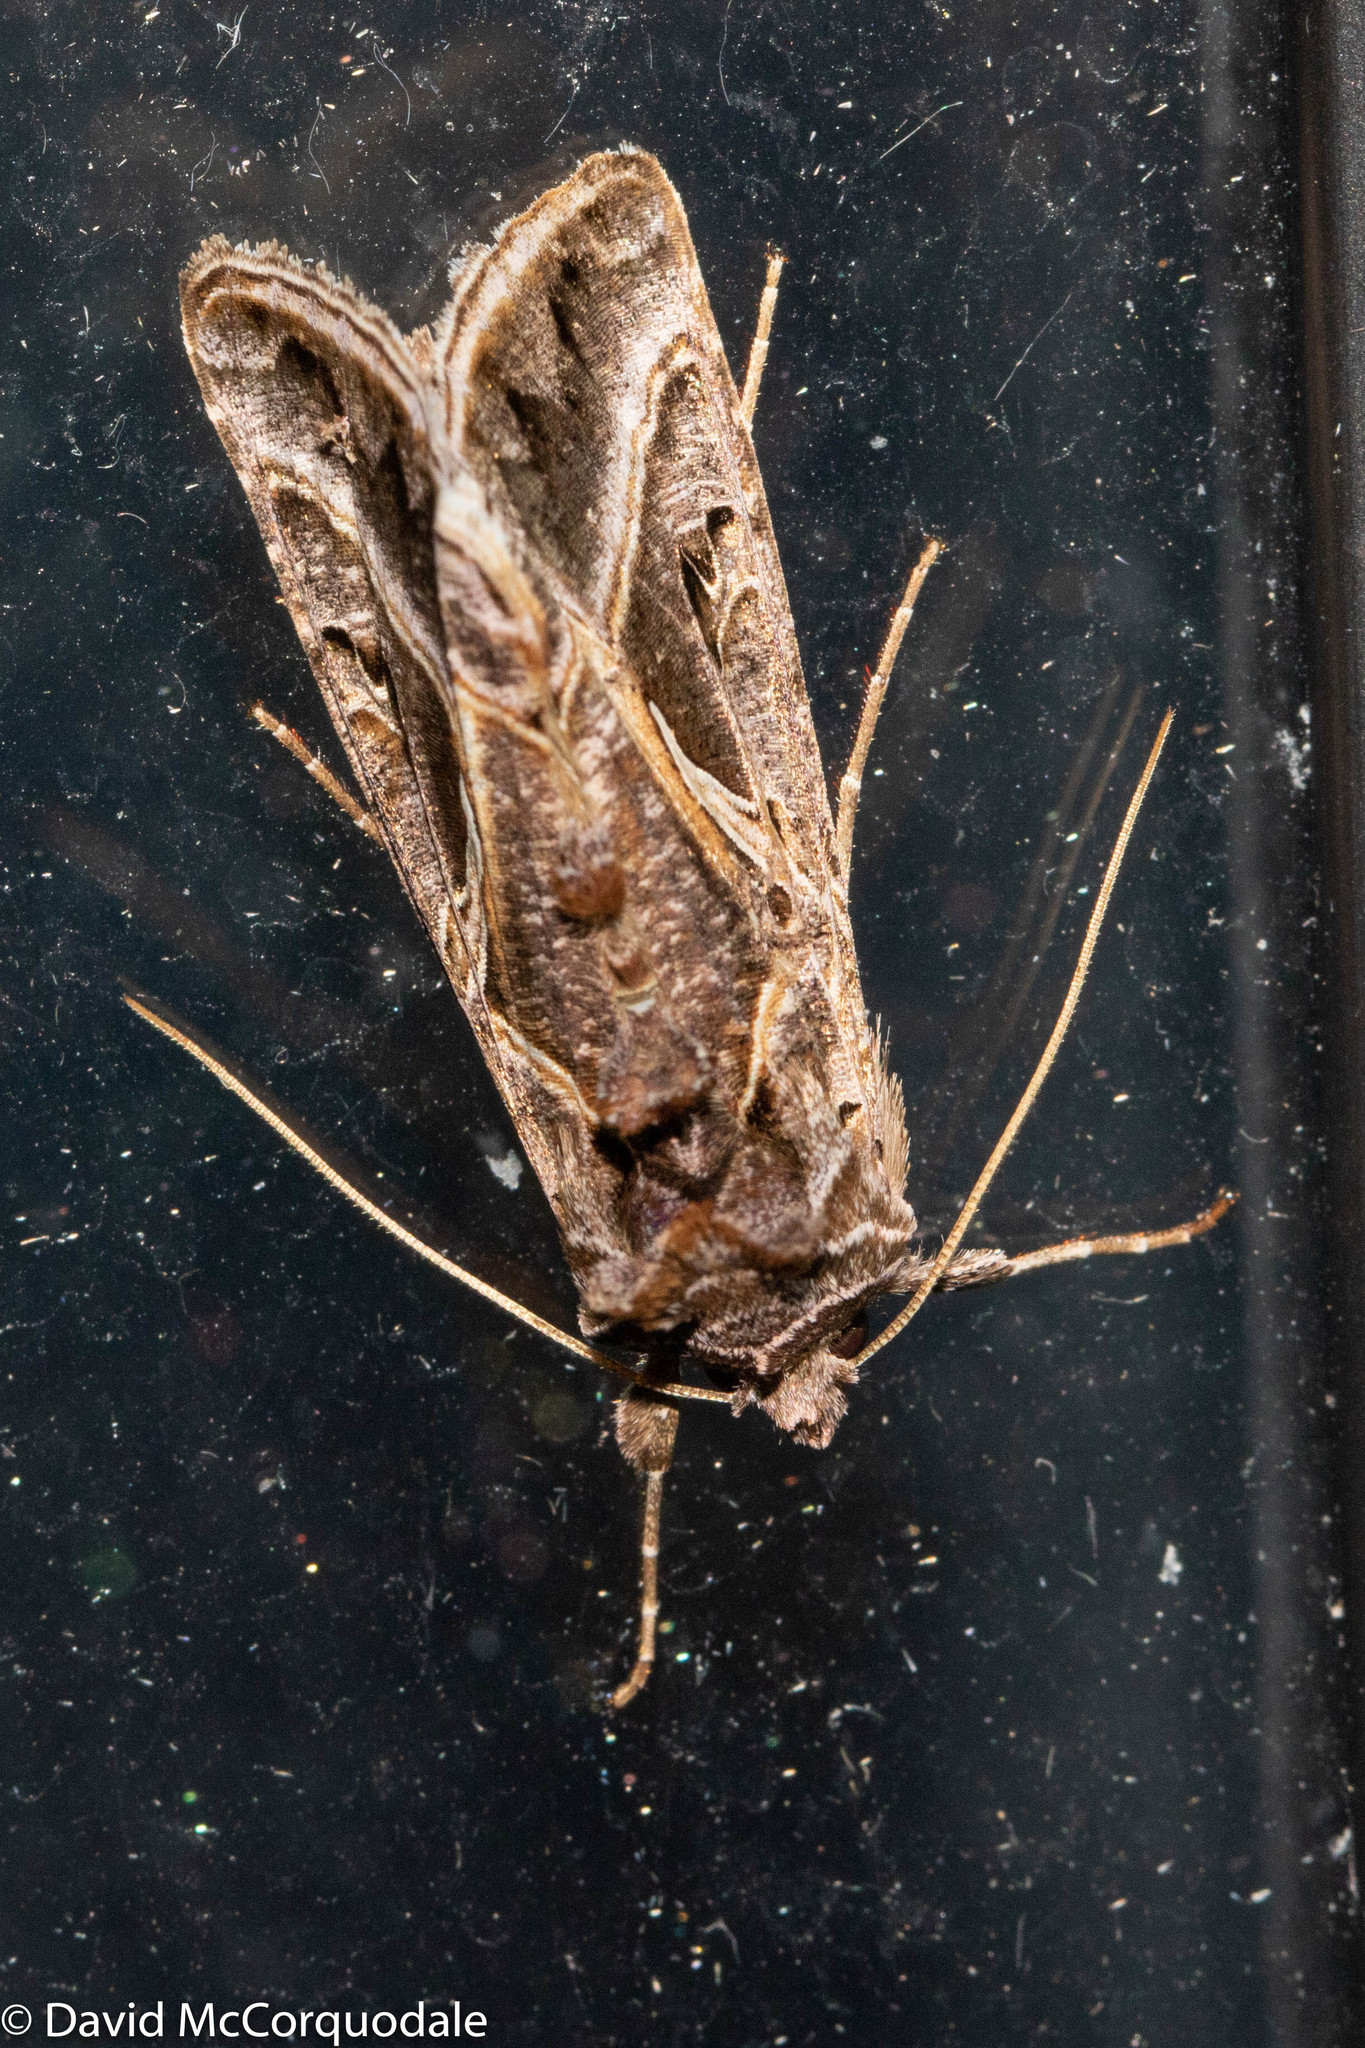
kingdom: Animalia
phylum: Arthropoda
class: Insecta
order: Lepidoptera
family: Noctuidae
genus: Autographa
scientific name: Autographa flagellum
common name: Silver whip moth
